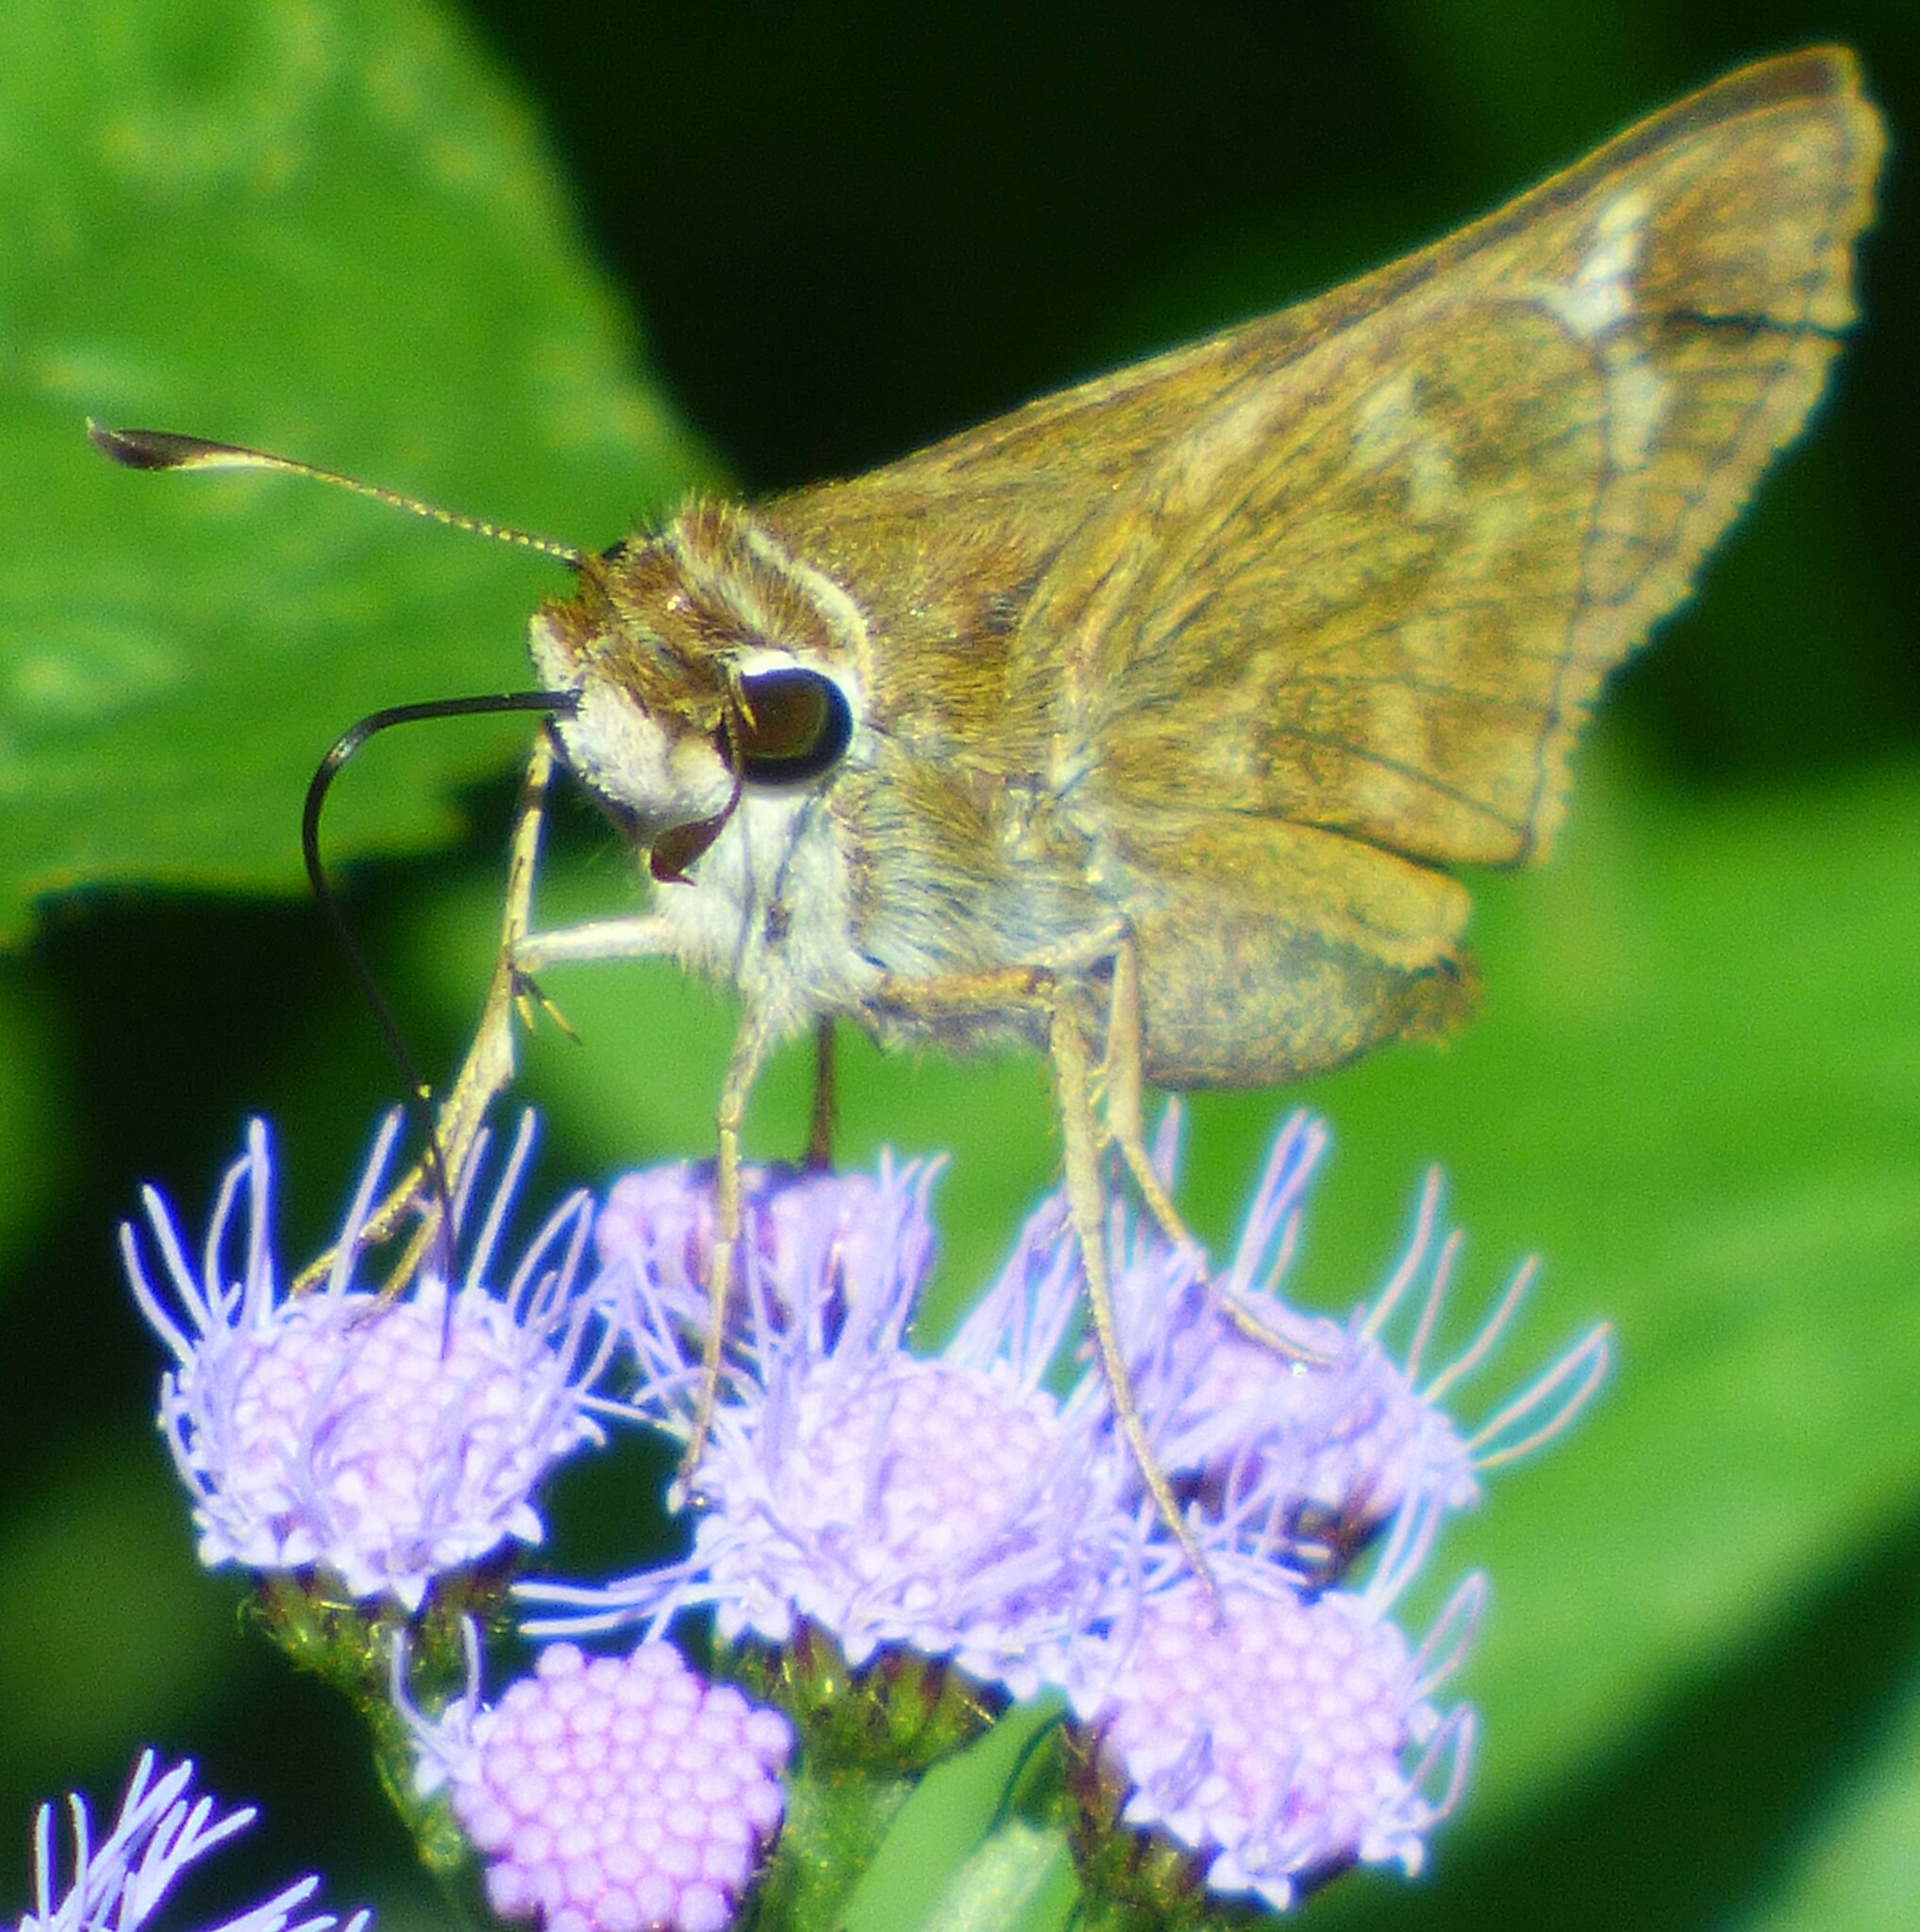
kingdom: Animalia
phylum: Arthropoda
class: Insecta
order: Lepidoptera
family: Hesperiidae
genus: Atalopedes
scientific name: Atalopedes
